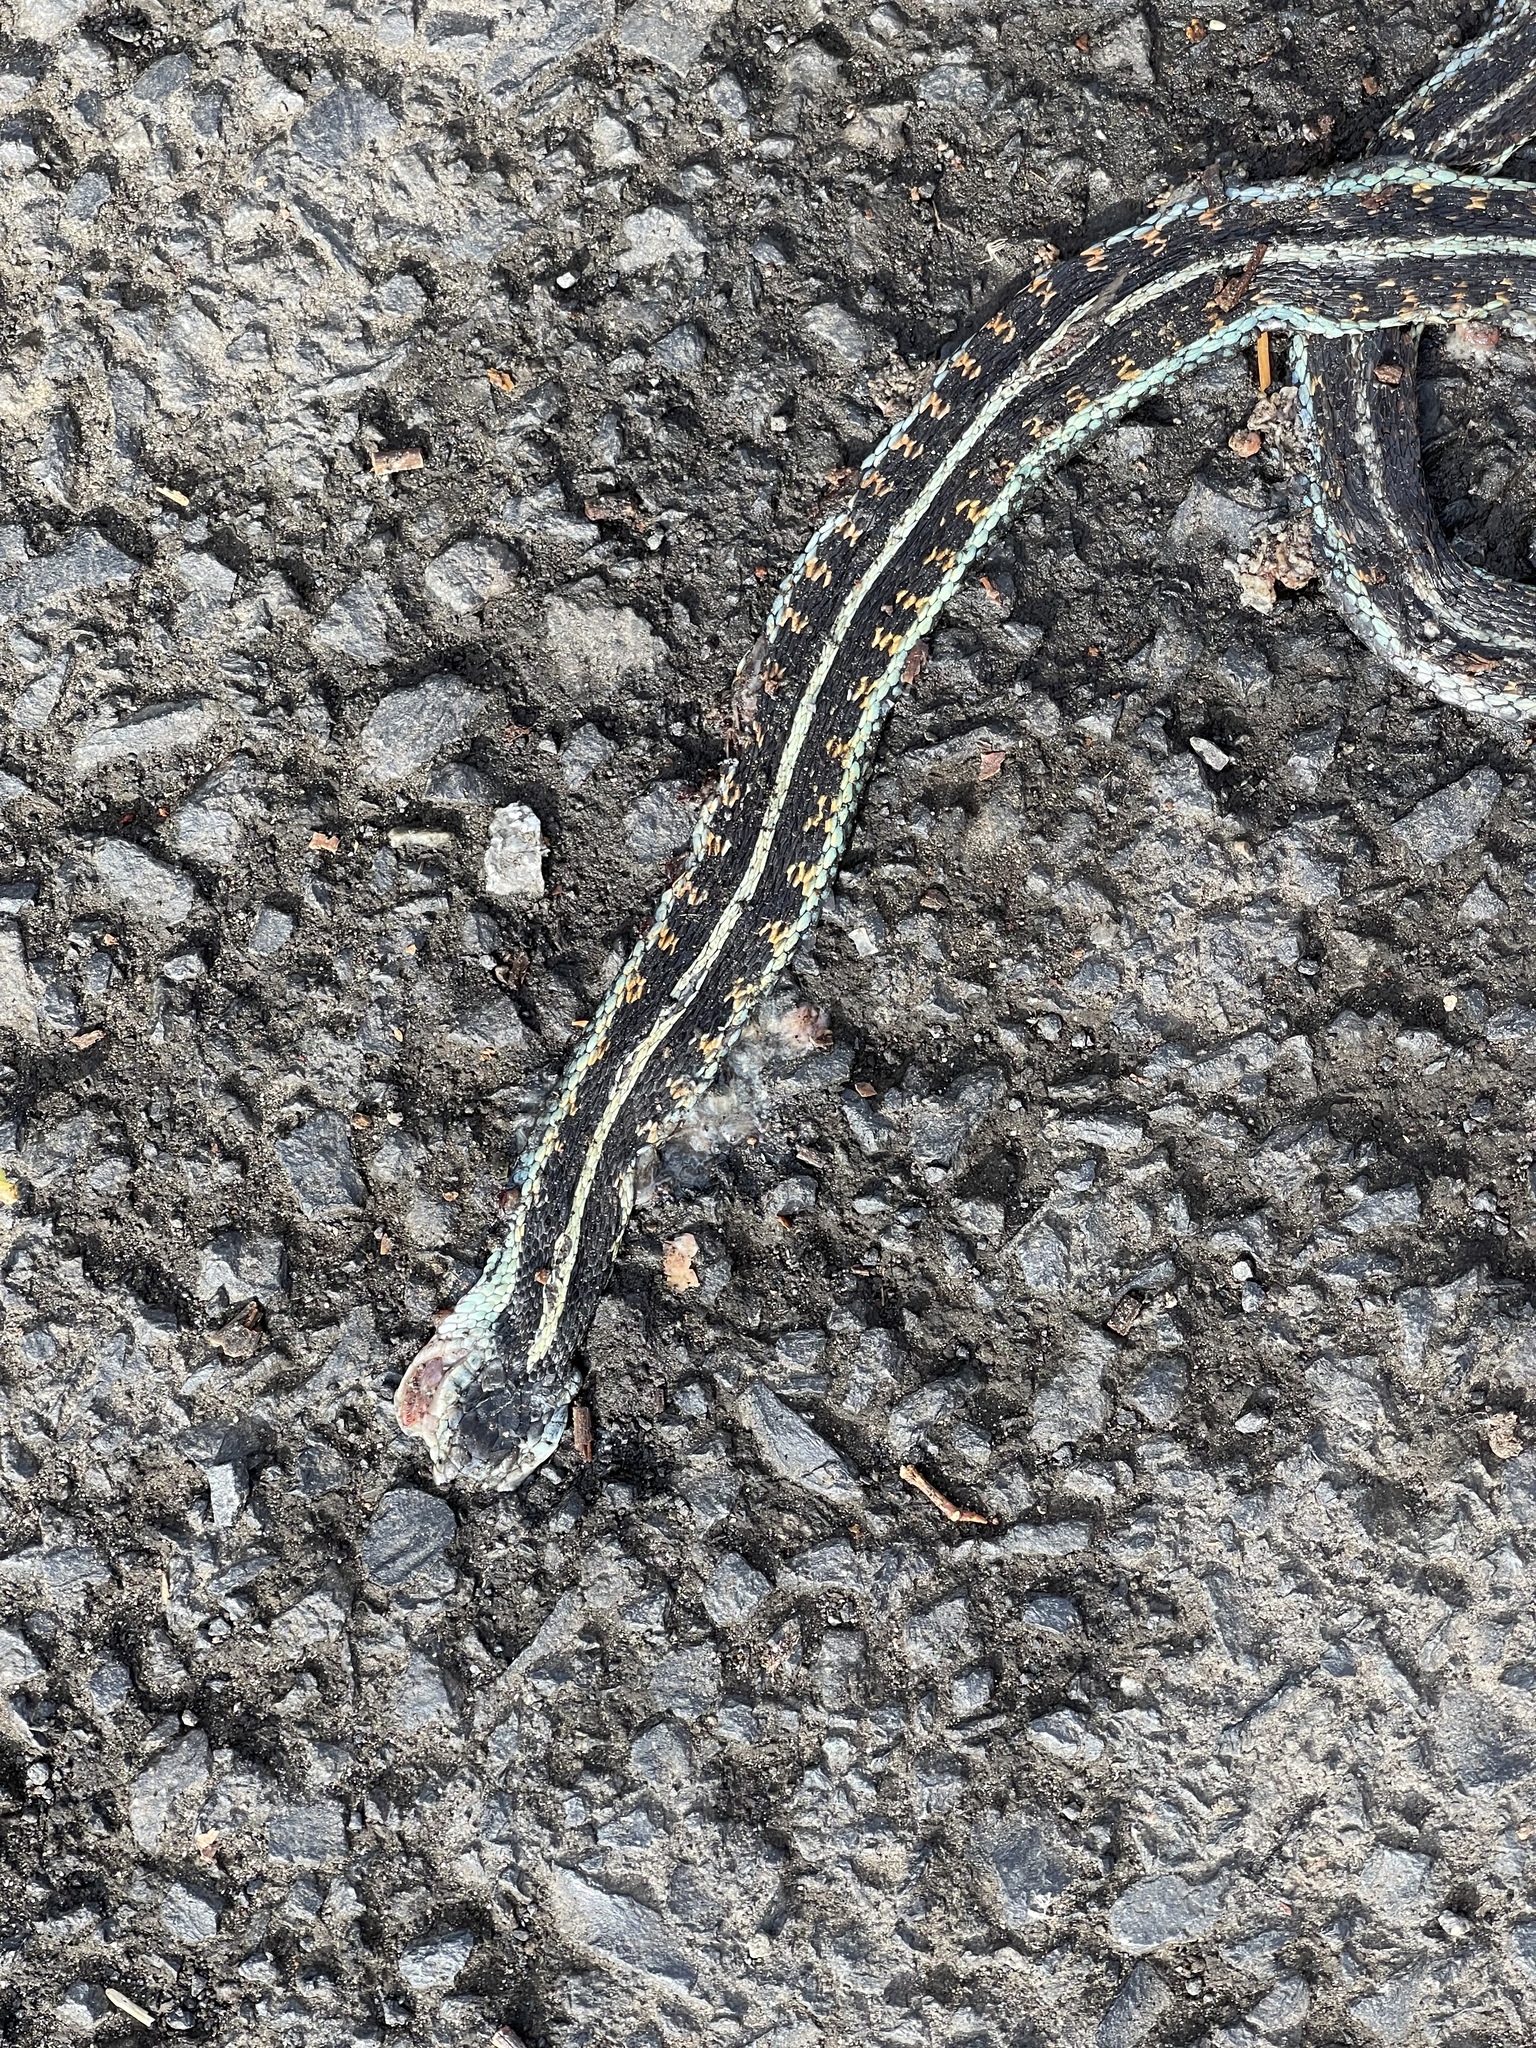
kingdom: Animalia
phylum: Chordata
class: Squamata
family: Colubridae
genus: Thamnophis
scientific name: Thamnophis sirtalis
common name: Common garter snake
